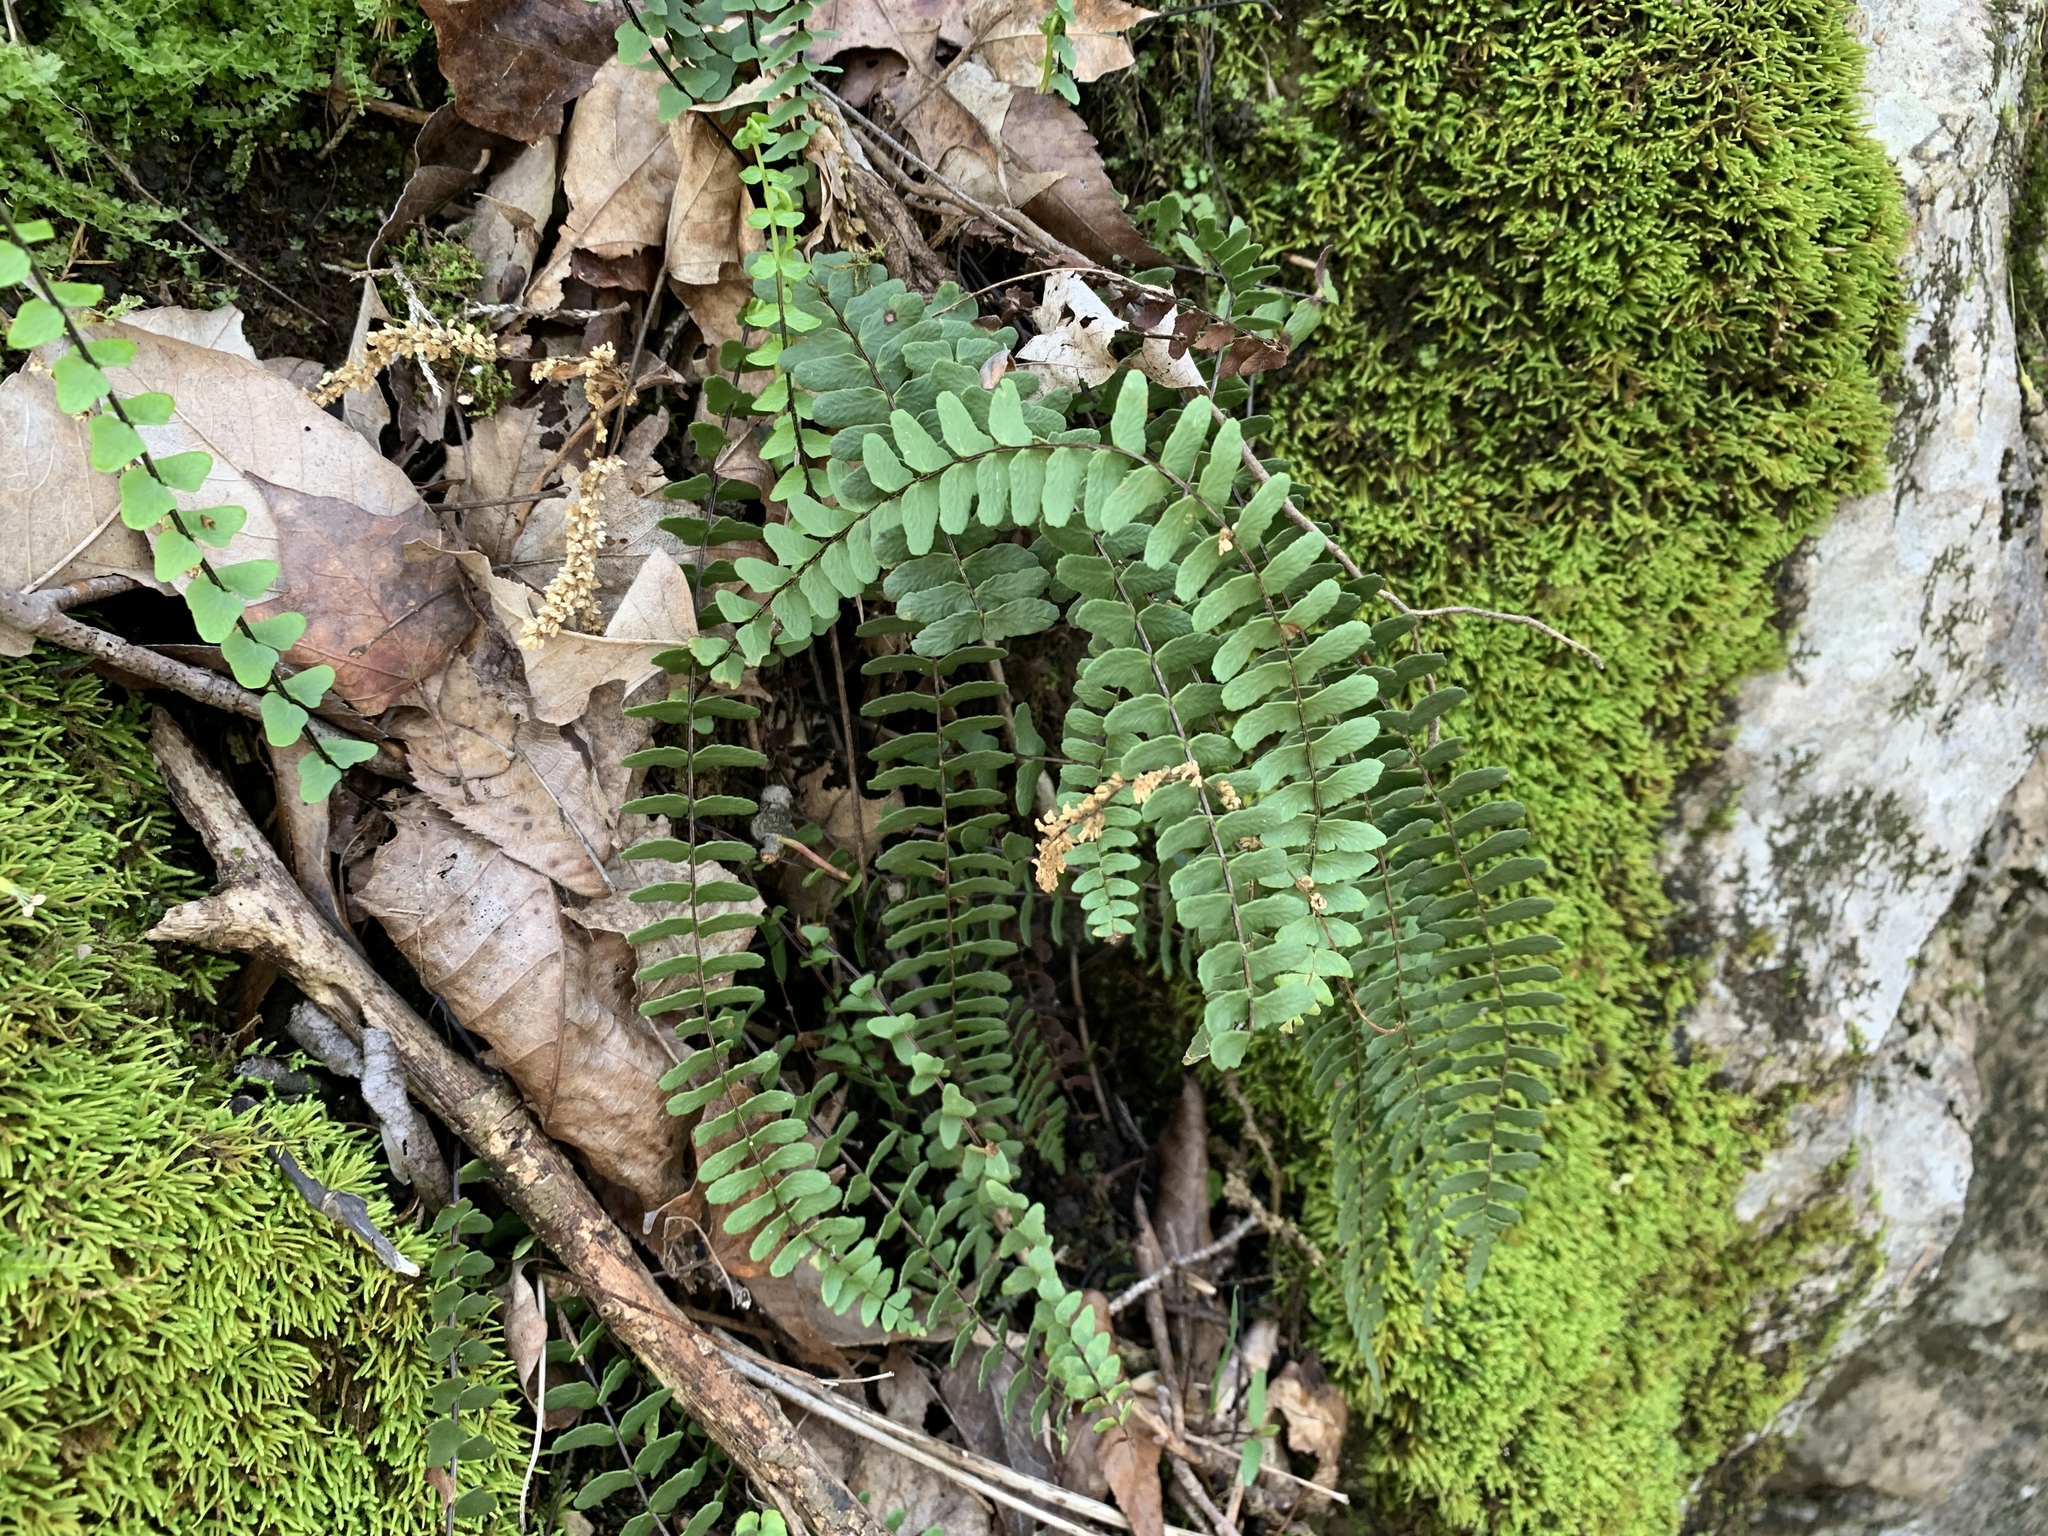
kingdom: Plantae
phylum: Tracheophyta
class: Polypodiopsida
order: Polypodiales
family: Aspleniaceae
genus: Asplenium
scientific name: Asplenium resiliens
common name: Blackstem spleenwort
